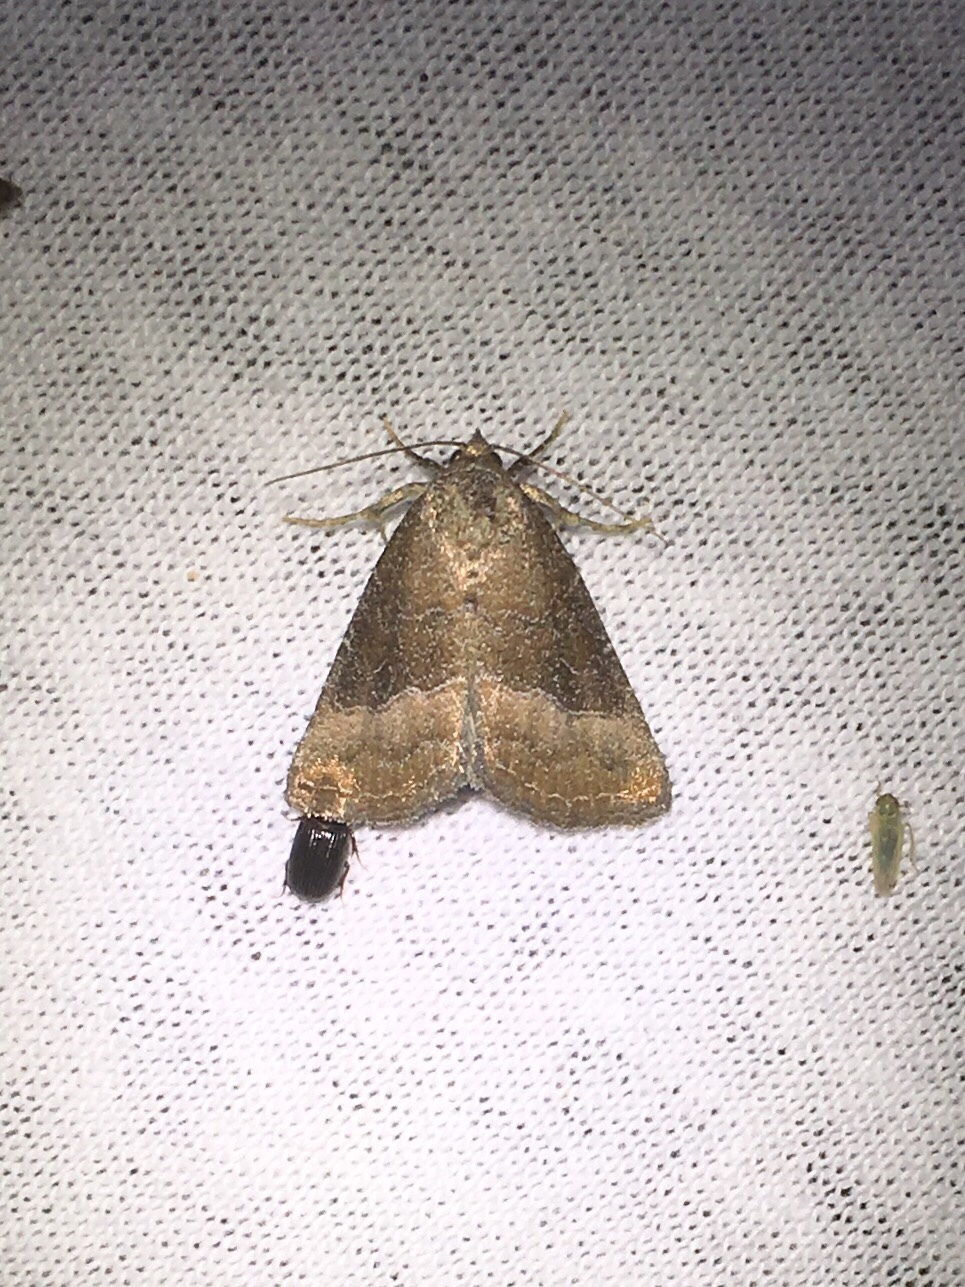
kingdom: Animalia
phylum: Arthropoda
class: Insecta
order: Lepidoptera
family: Noctuidae
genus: Ogdoconta
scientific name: Ogdoconta cinereola
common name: Common pinkband
